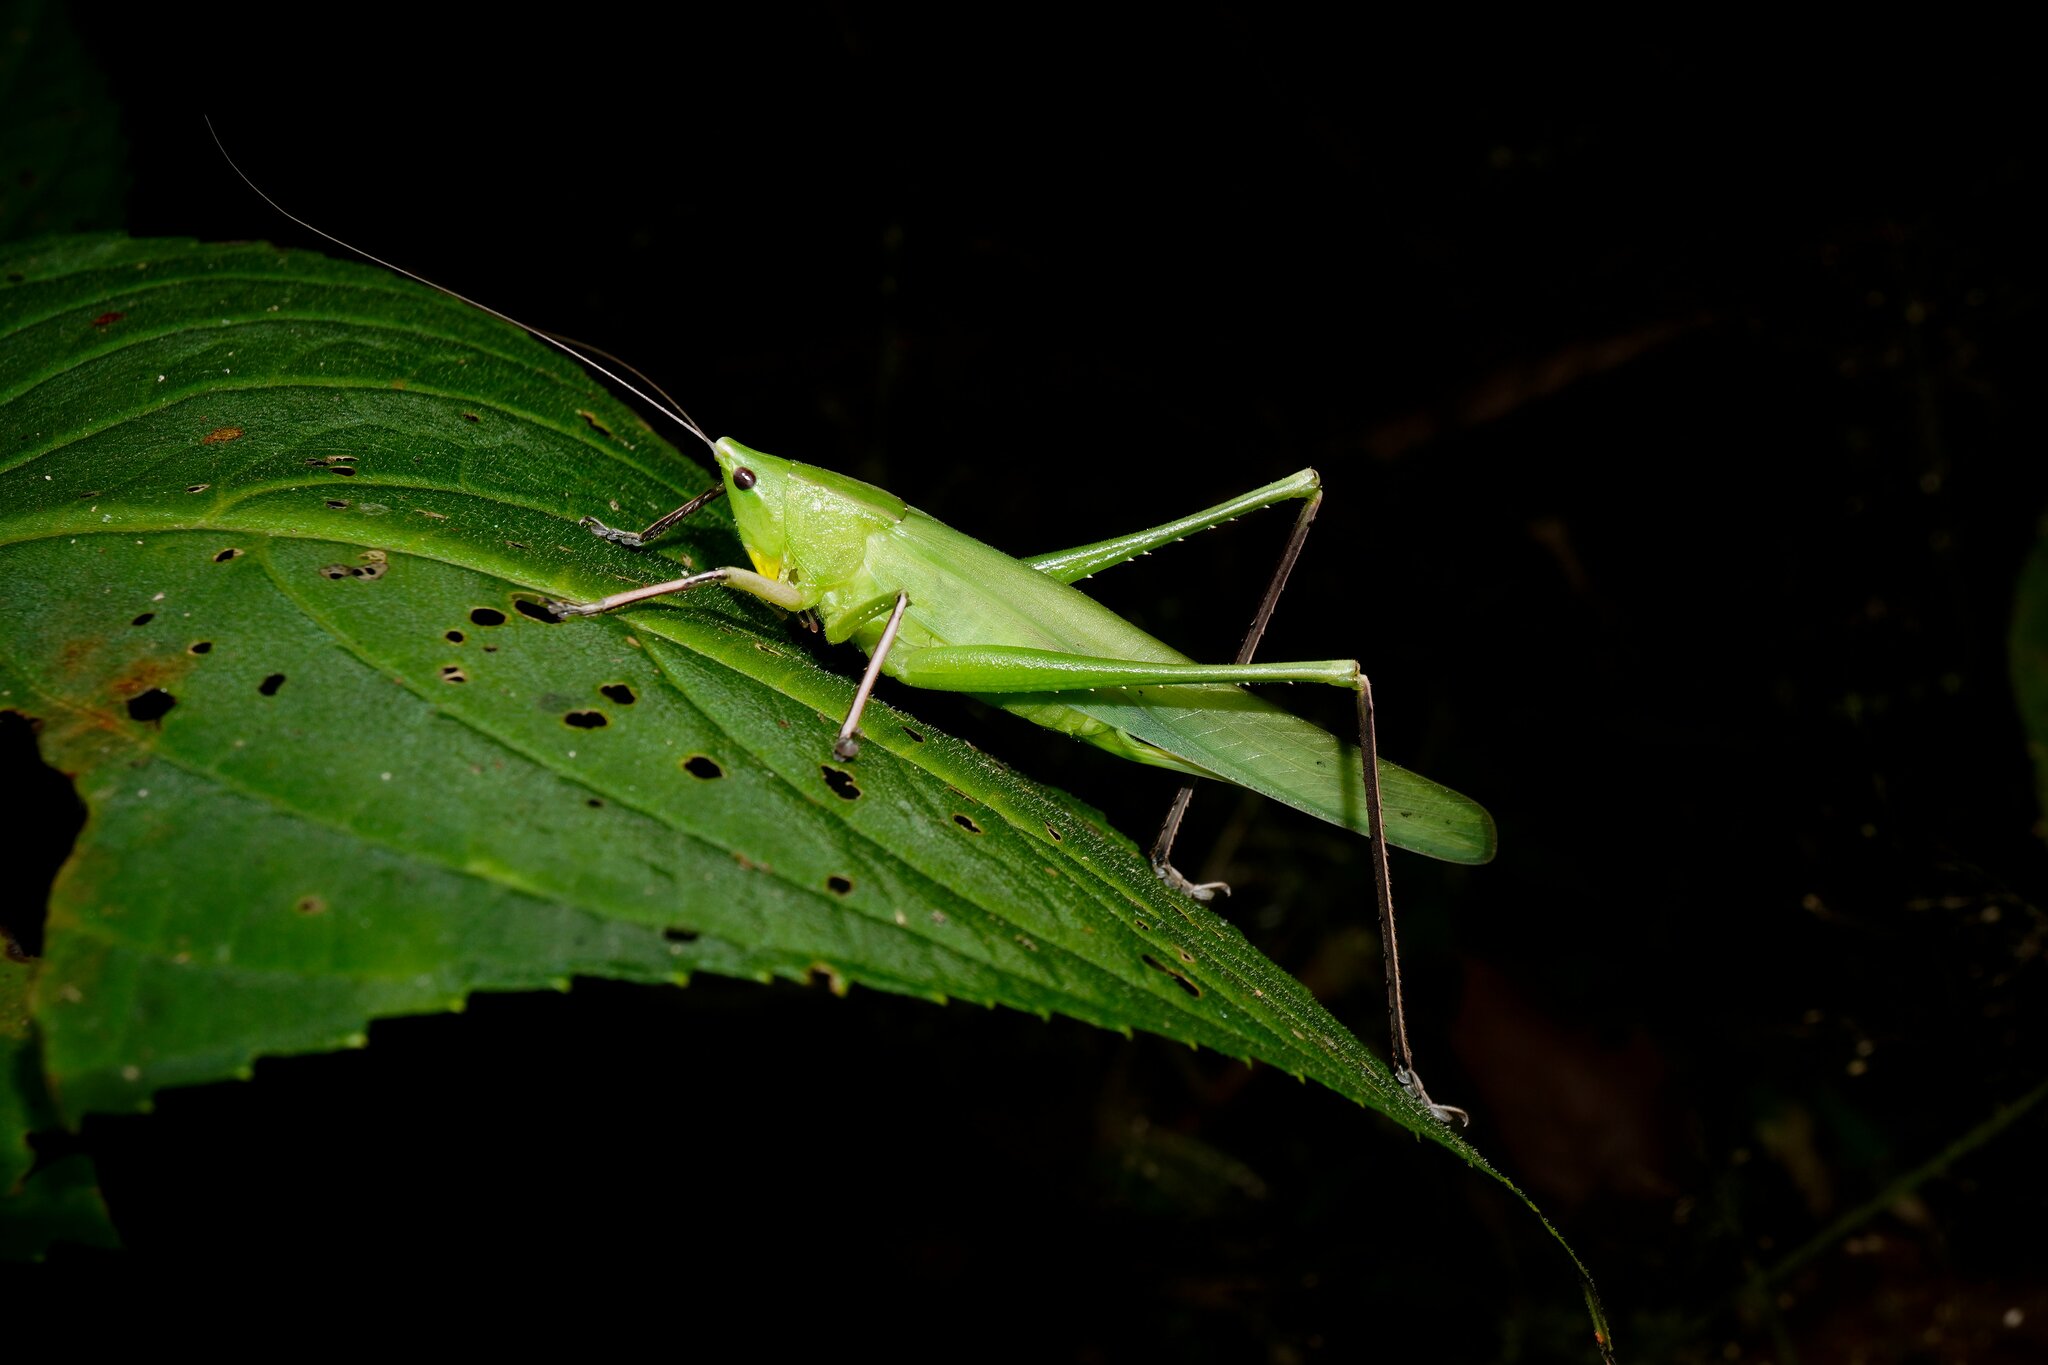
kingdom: Animalia
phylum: Arthropoda
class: Insecta
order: Orthoptera
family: Tettigoniidae
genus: Ruspolia
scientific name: Ruspolia indica
